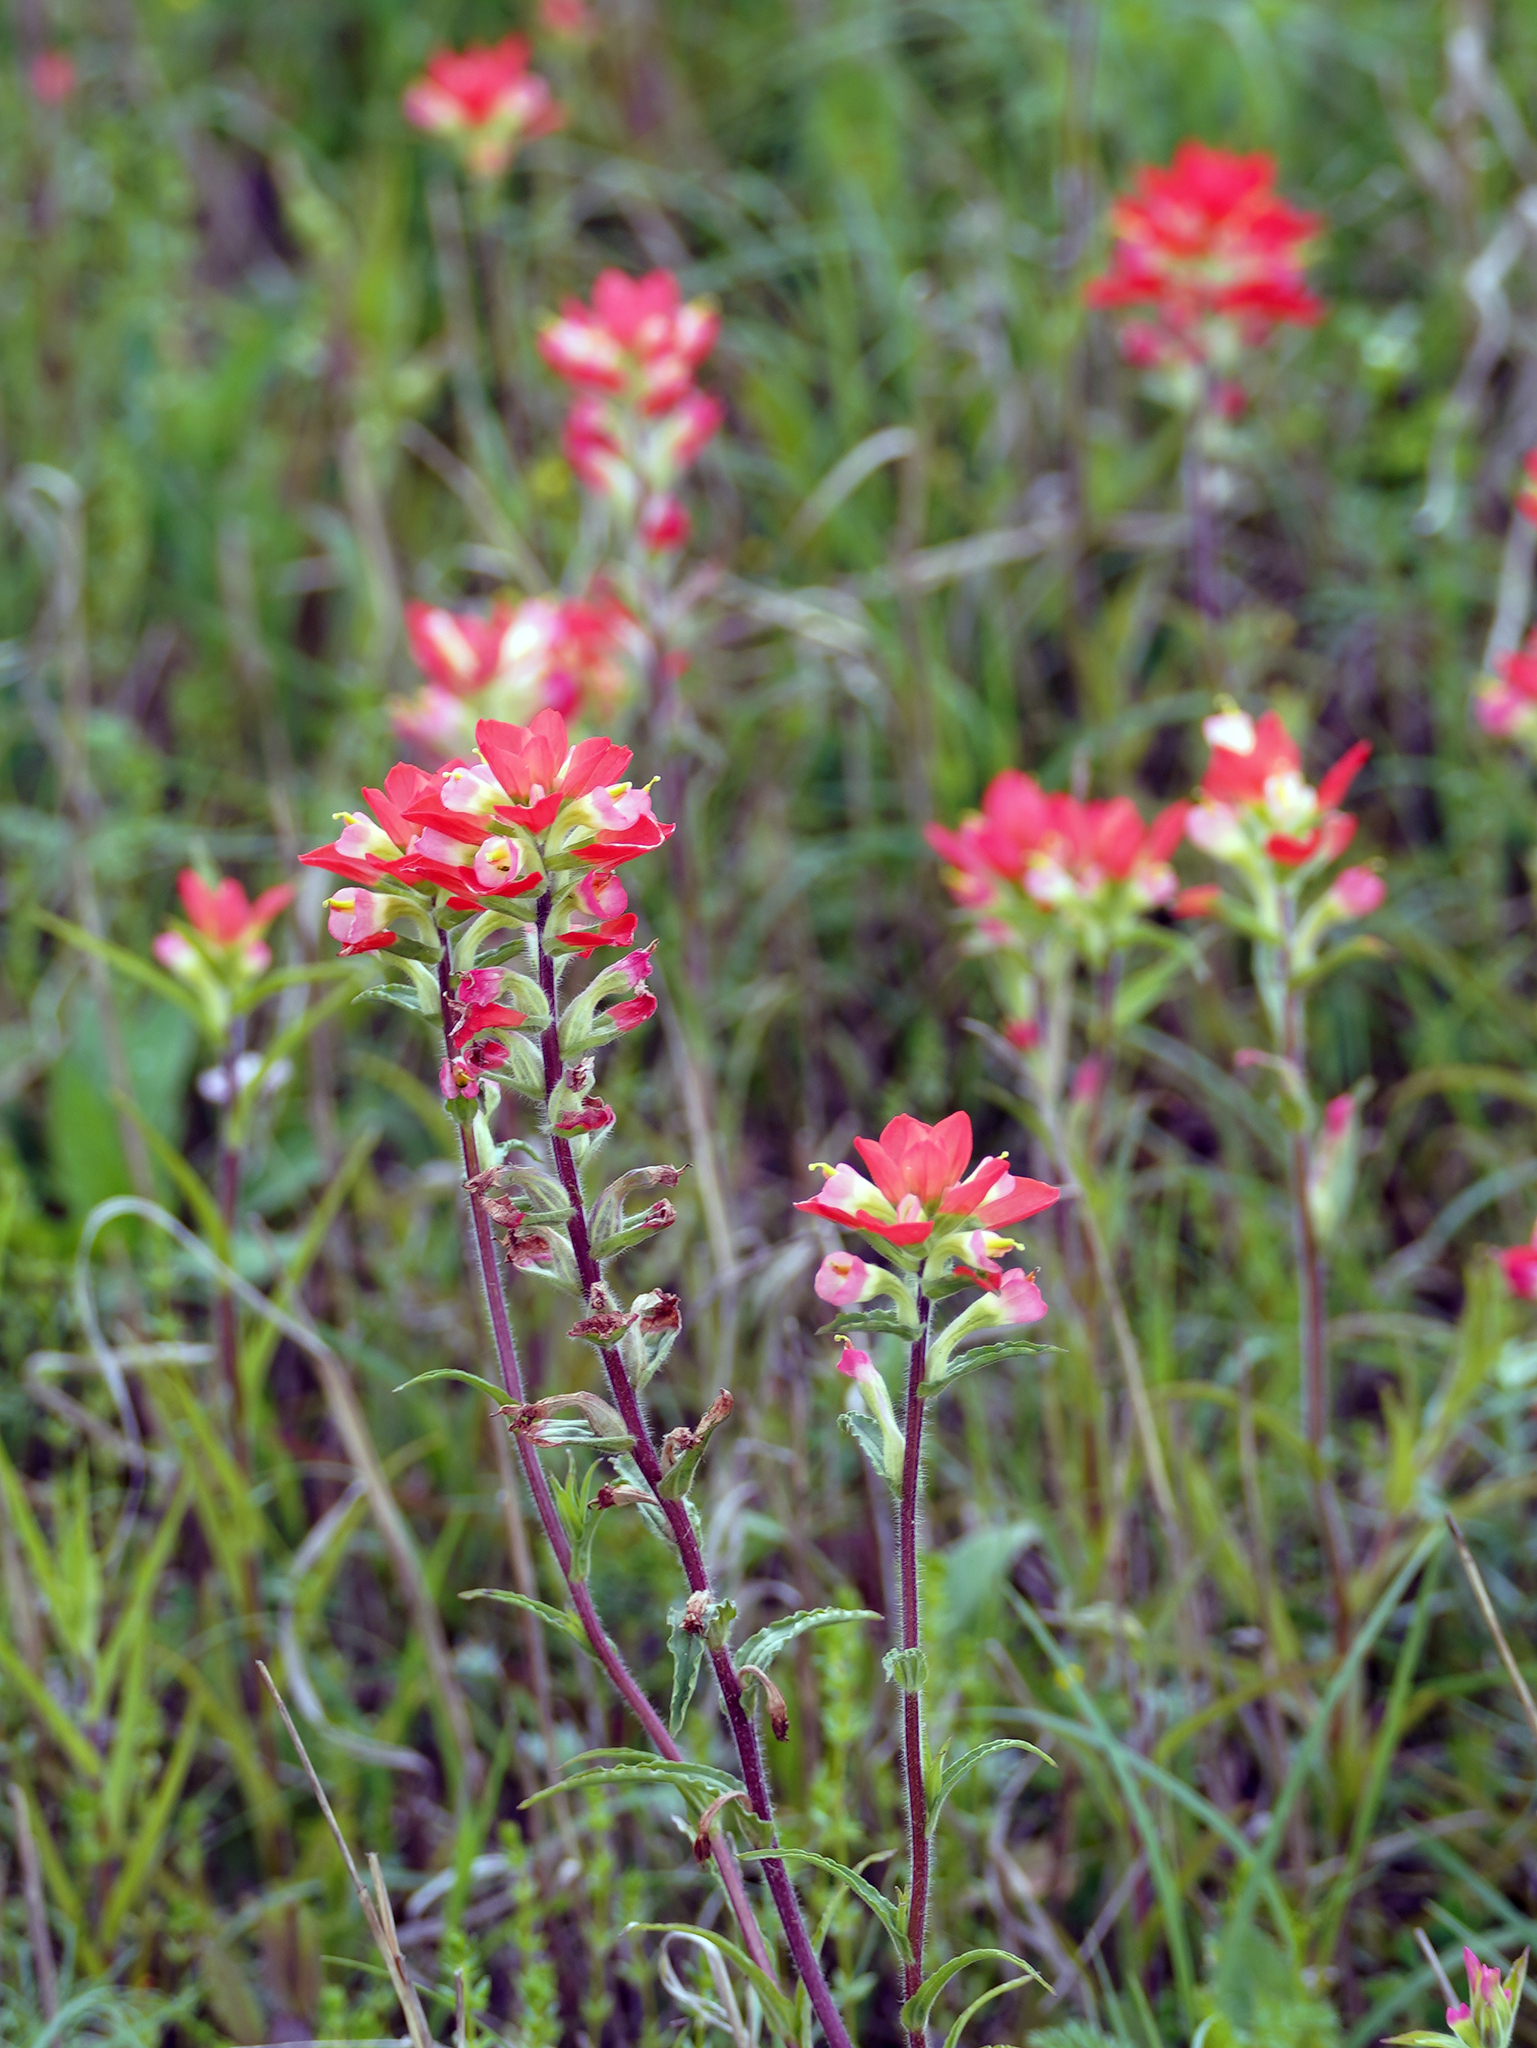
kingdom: Plantae
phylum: Tracheophyta
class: Magnoliopsida
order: Lamiales
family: Orobanchaceae
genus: Castilleja
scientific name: Castilleja indivisa
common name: Texas paintbrush
